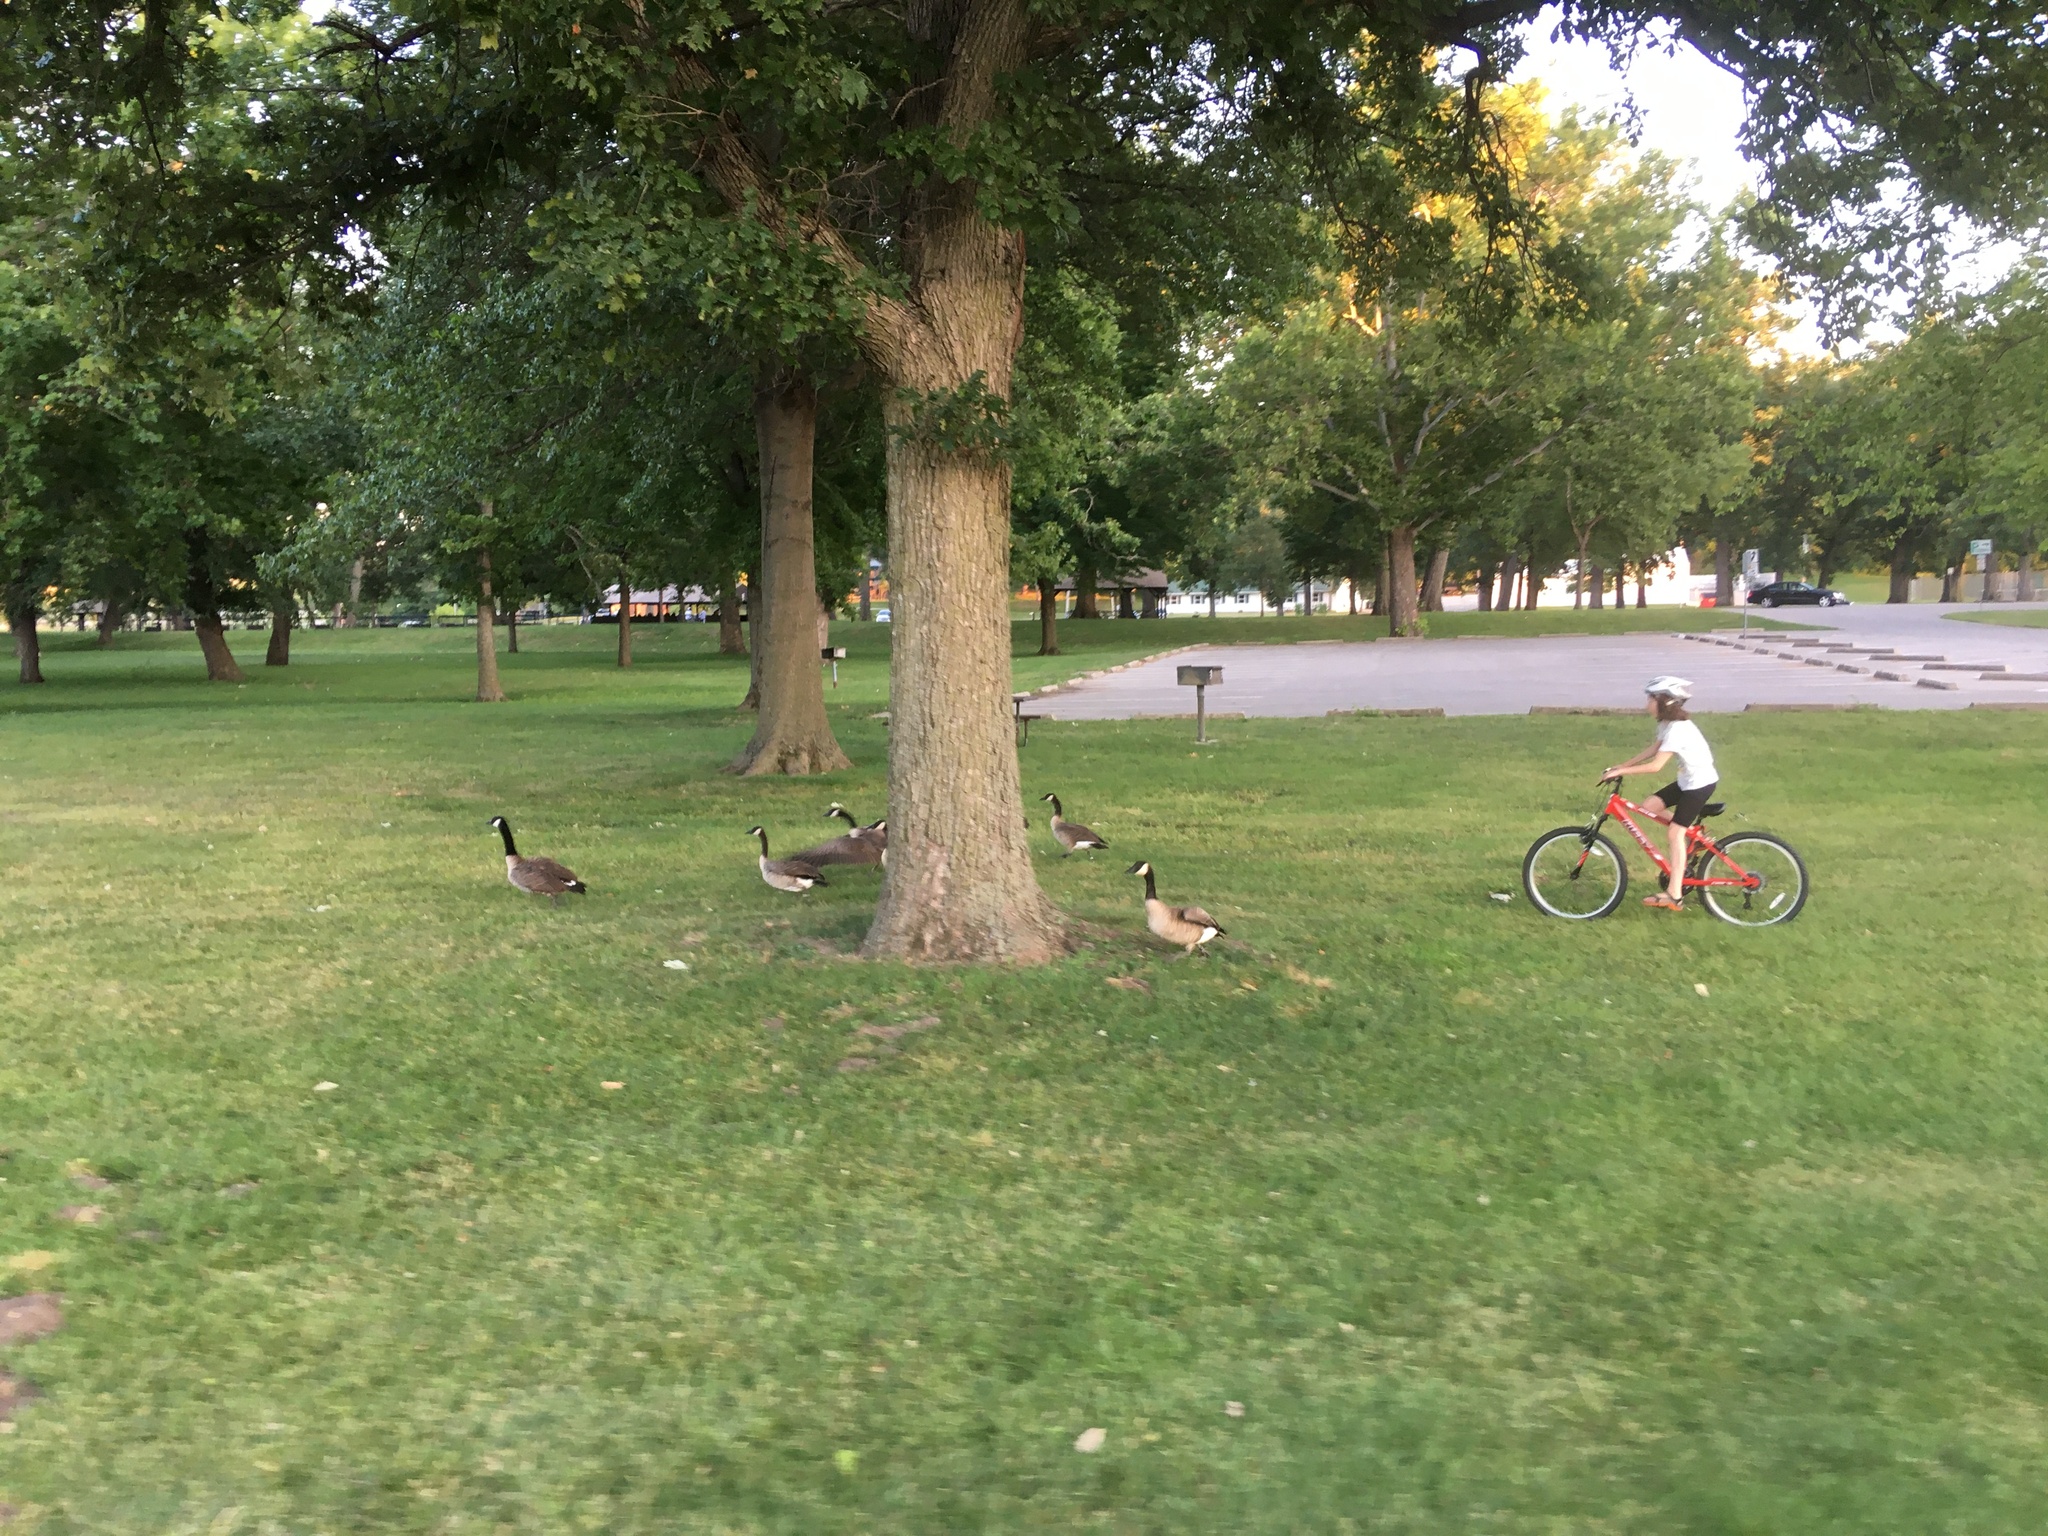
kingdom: Animalia
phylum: Chordata
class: Aves
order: Anseriformes
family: Anatidae
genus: Branta
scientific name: Branta canadensis
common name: Canada goose
